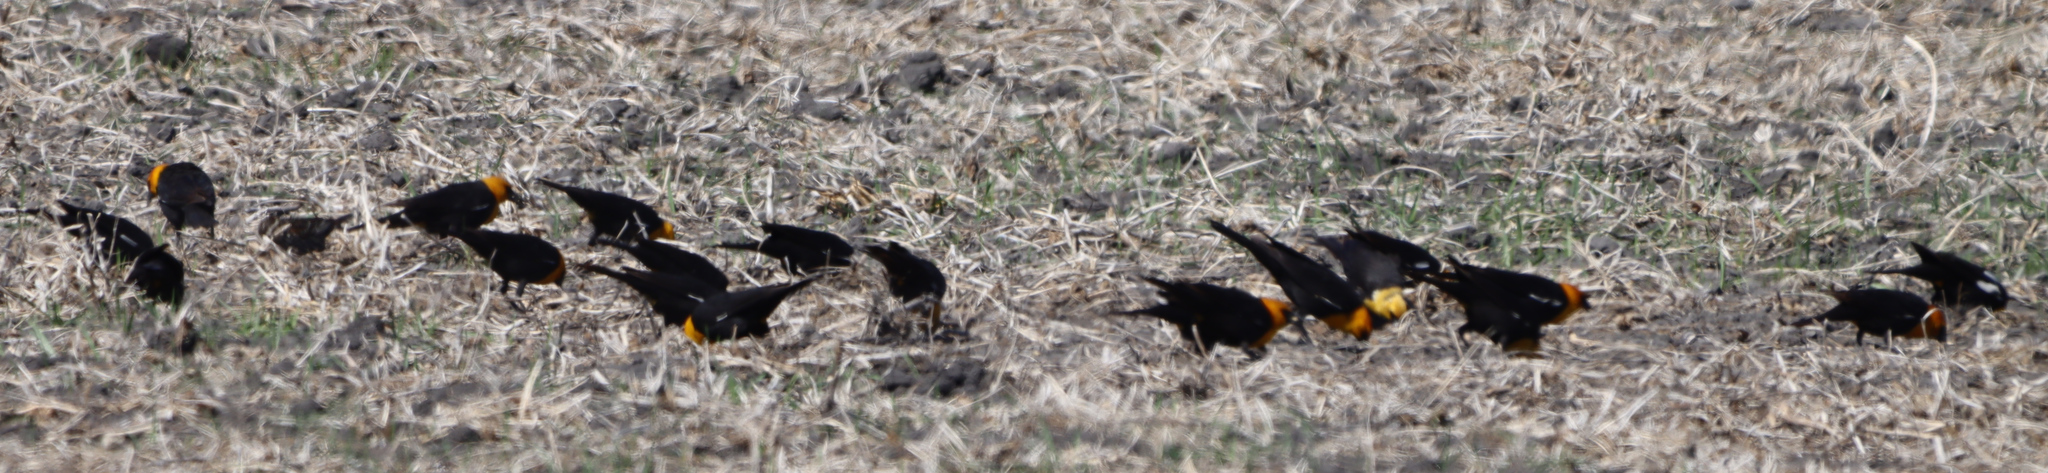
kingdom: Animalia
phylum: Chordata
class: Aves
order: Passeriformes
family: Icteridae
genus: Xanthocephalus
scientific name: Xanthocephalus xanthocephalus
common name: Yellow-headed blackbird
